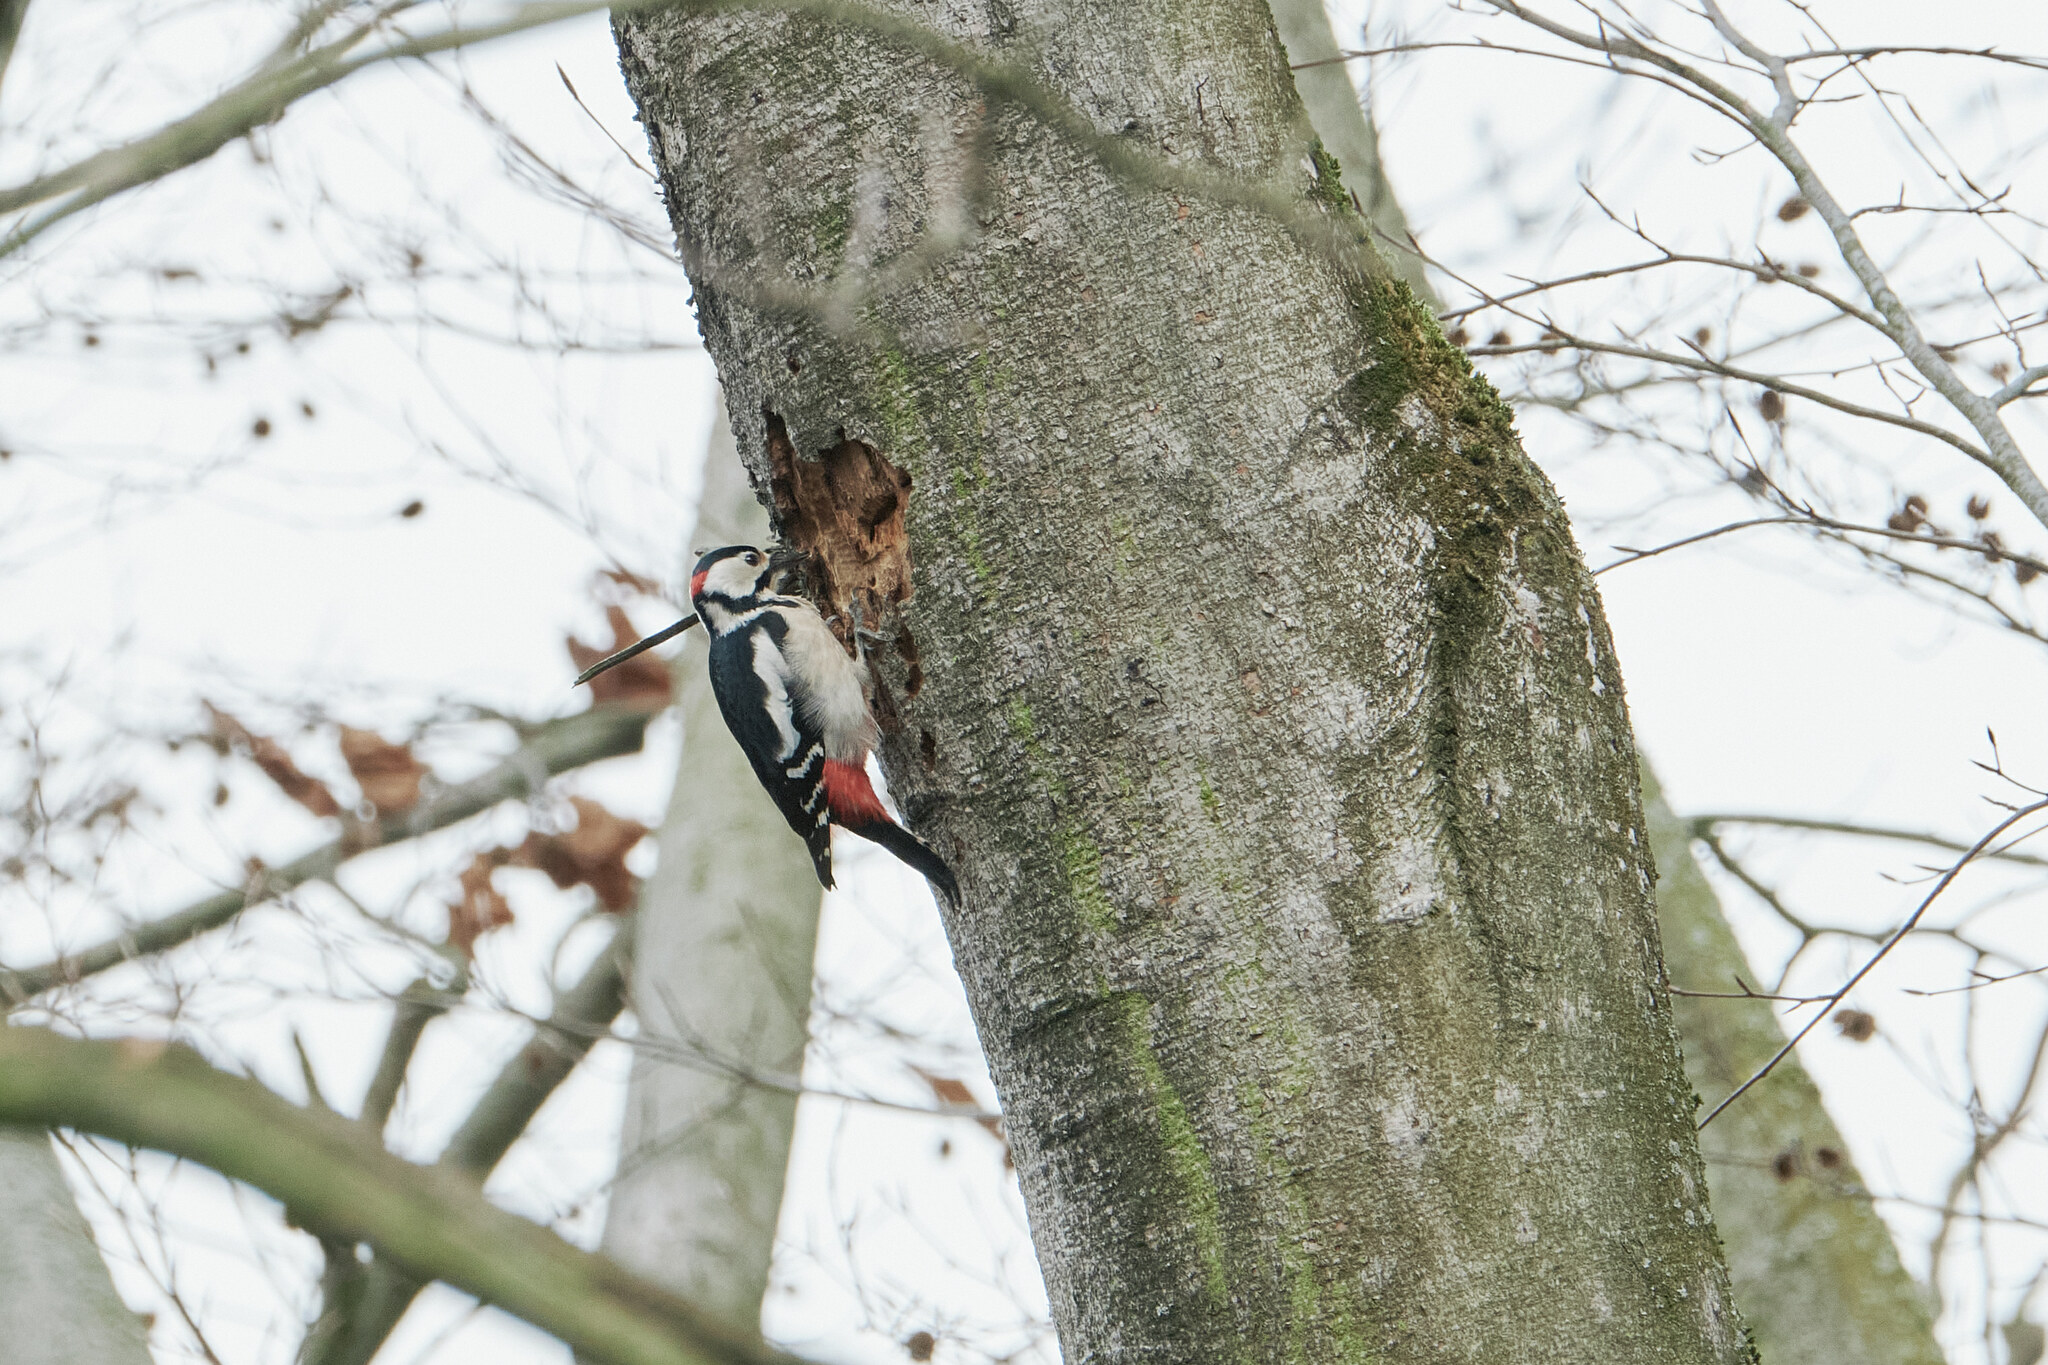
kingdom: Animalia
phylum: Chordata
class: Aves
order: Piciformes
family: Picidae
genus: Dendrocopos
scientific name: Dendrocopos major
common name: Great spotted woodpecker
